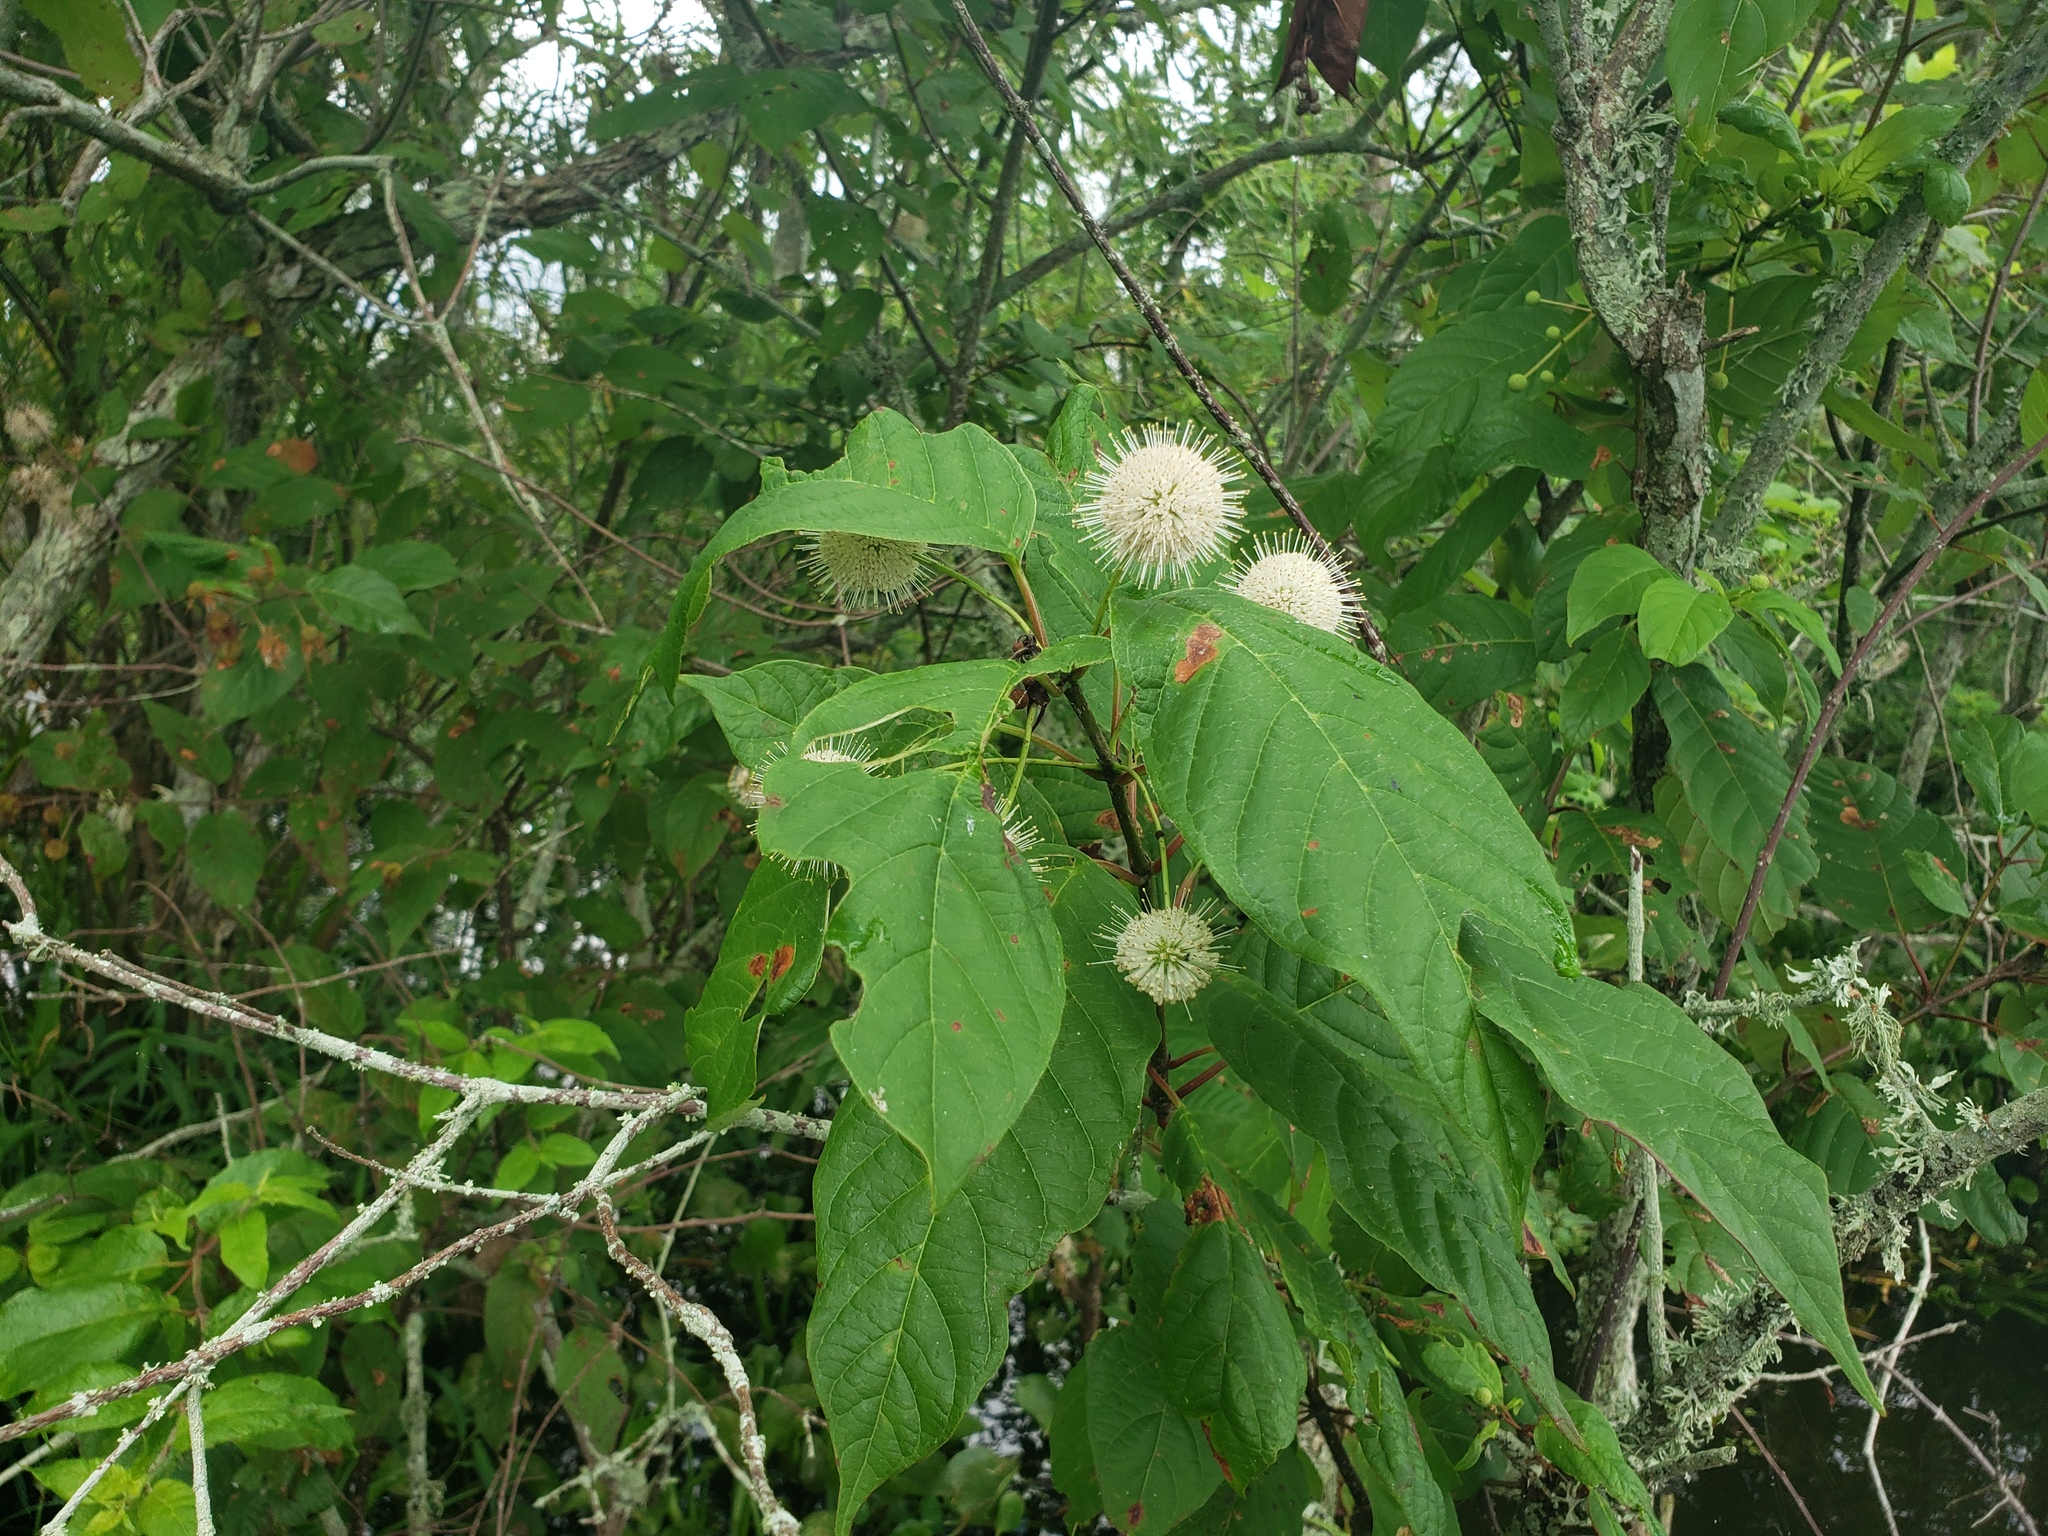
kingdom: Plantae
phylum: Tracheophyta
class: Magnoliopsida
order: Gentianales
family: Rubiaceae
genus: Cephalanthus
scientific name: Cephalanthus occidentalis
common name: Button-willow
